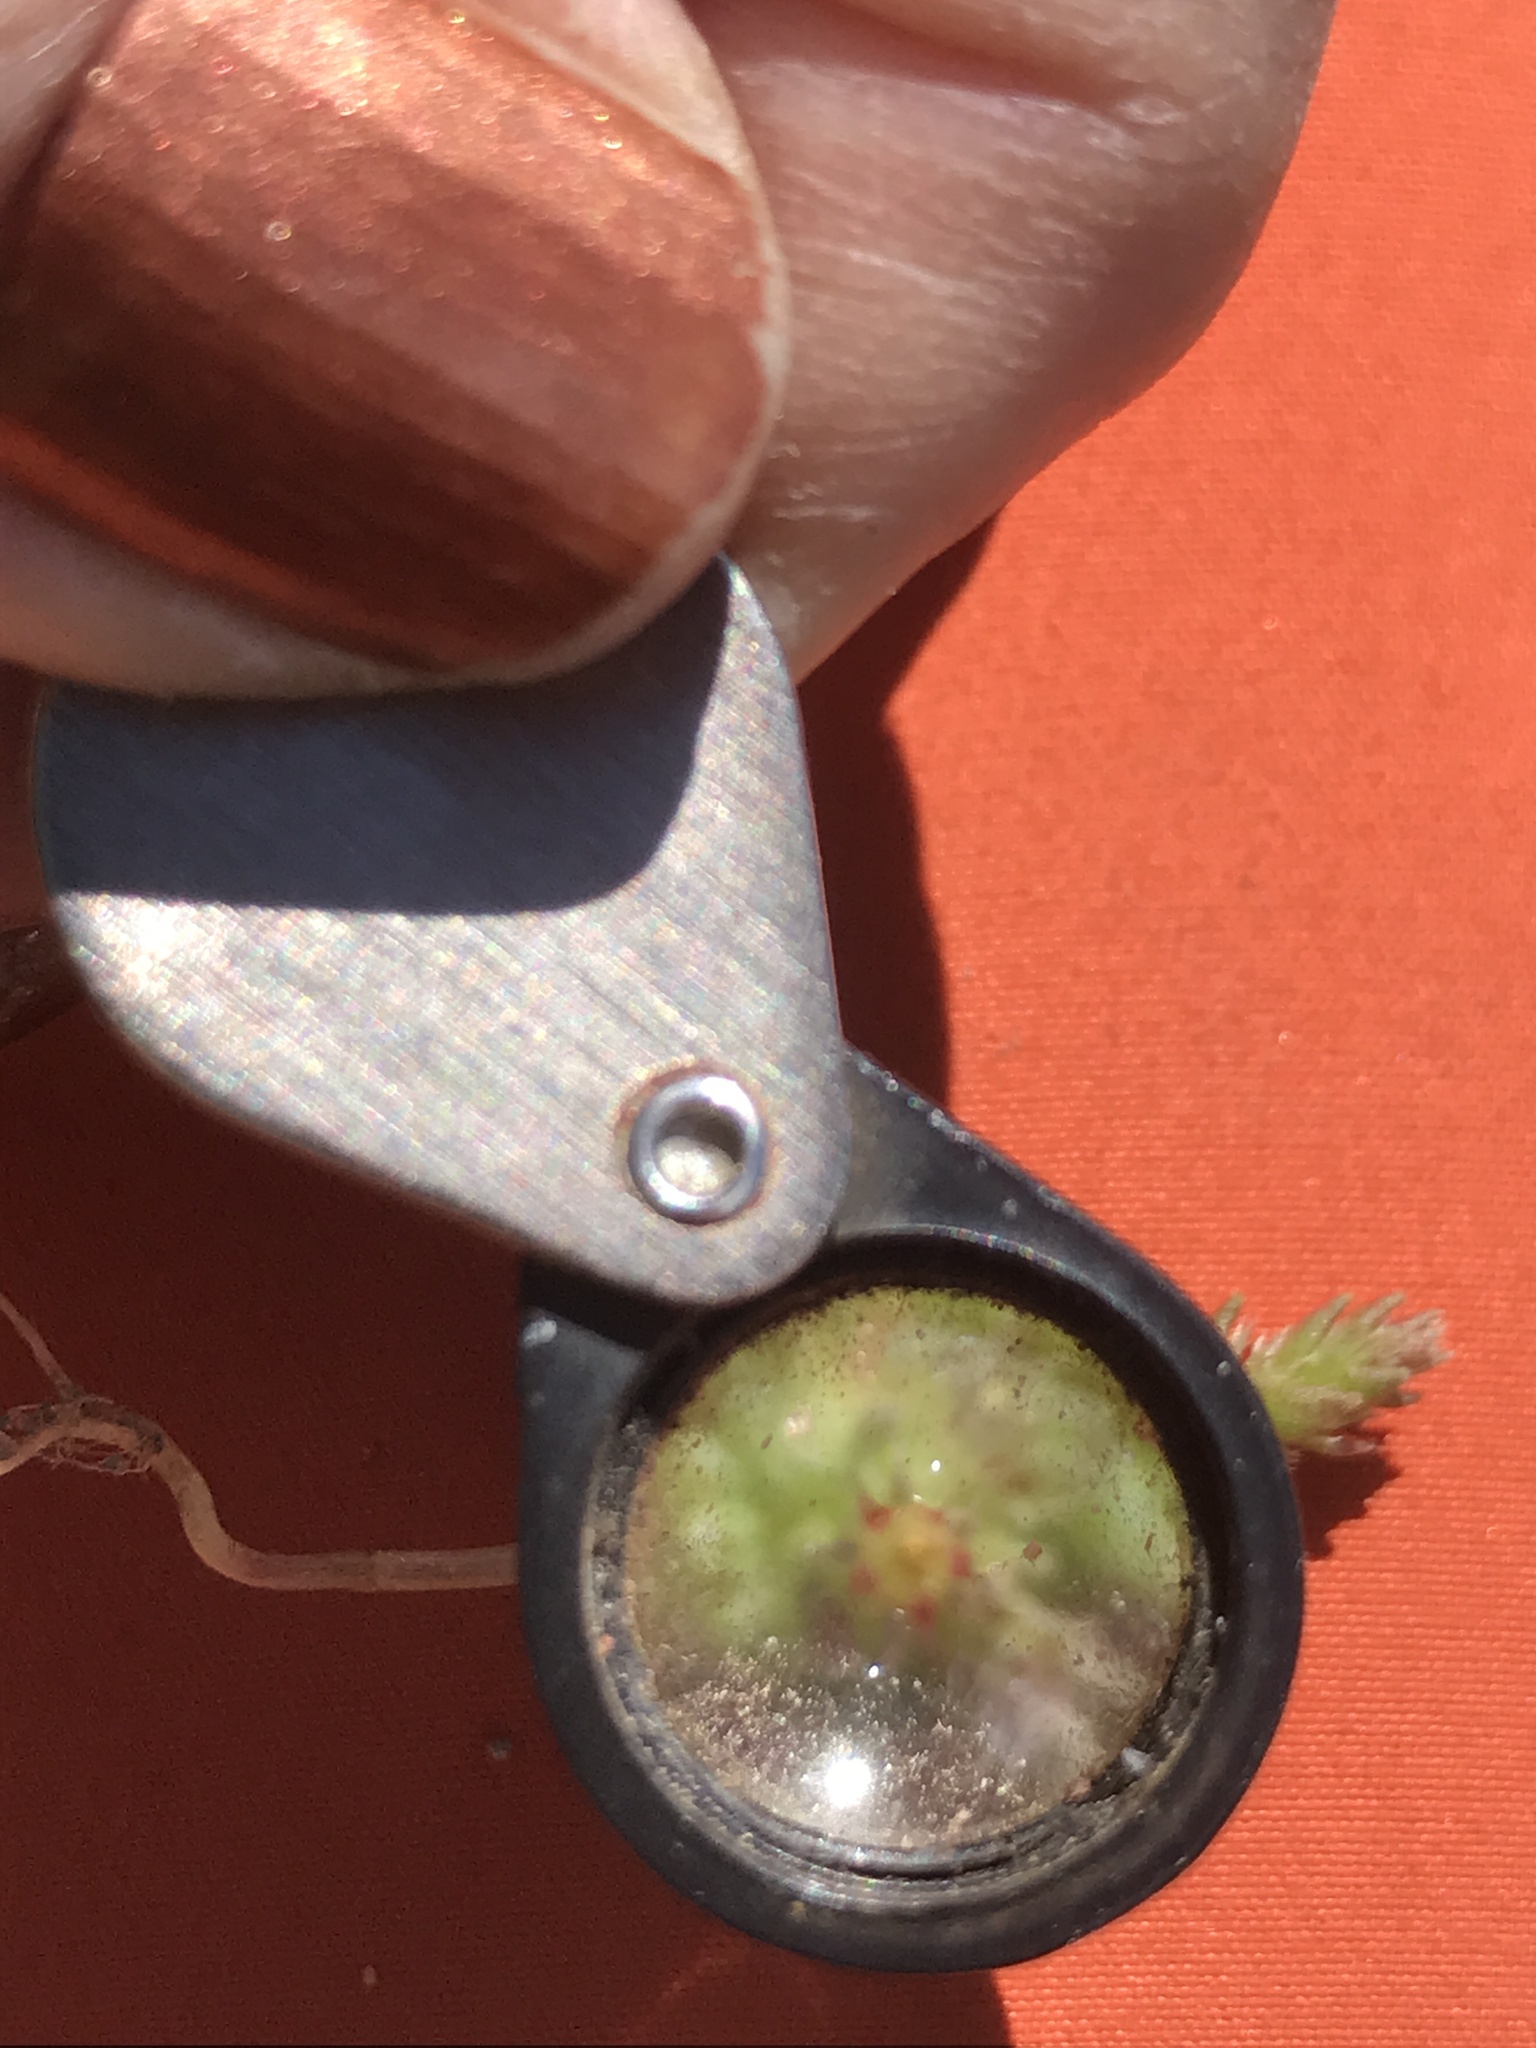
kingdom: Plantae
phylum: Tracheophyta
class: Magnoliopsida
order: Saxifragales
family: Crassulaceae
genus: Crassula
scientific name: Crassula colligata
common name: Pygmyweed
